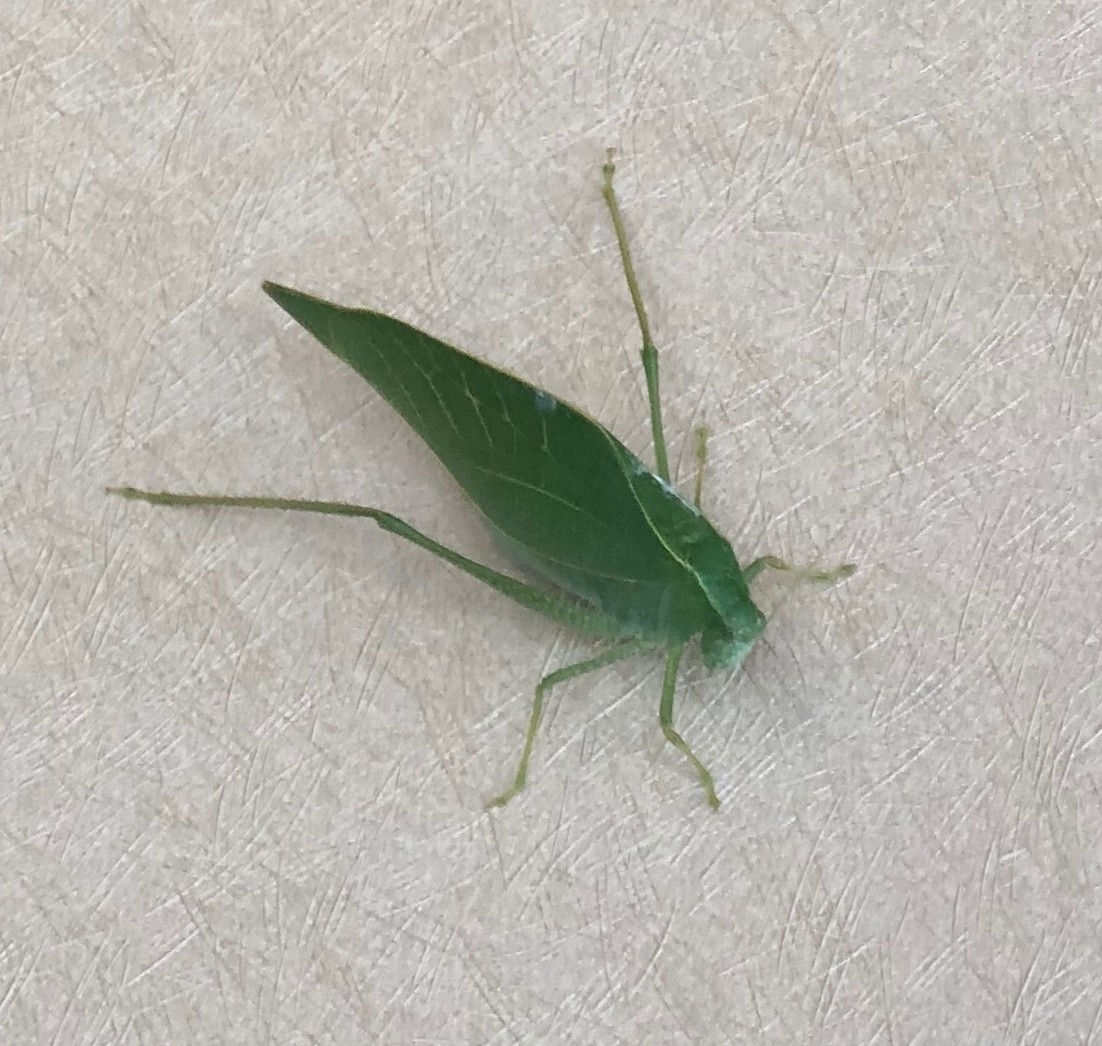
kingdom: Animalia
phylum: Arthropoda
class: Insecta
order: Orthoptera
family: Tettigoniidae
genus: Microcentrum
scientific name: Microcentrum rhombifolium
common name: Broad-winged katydid
